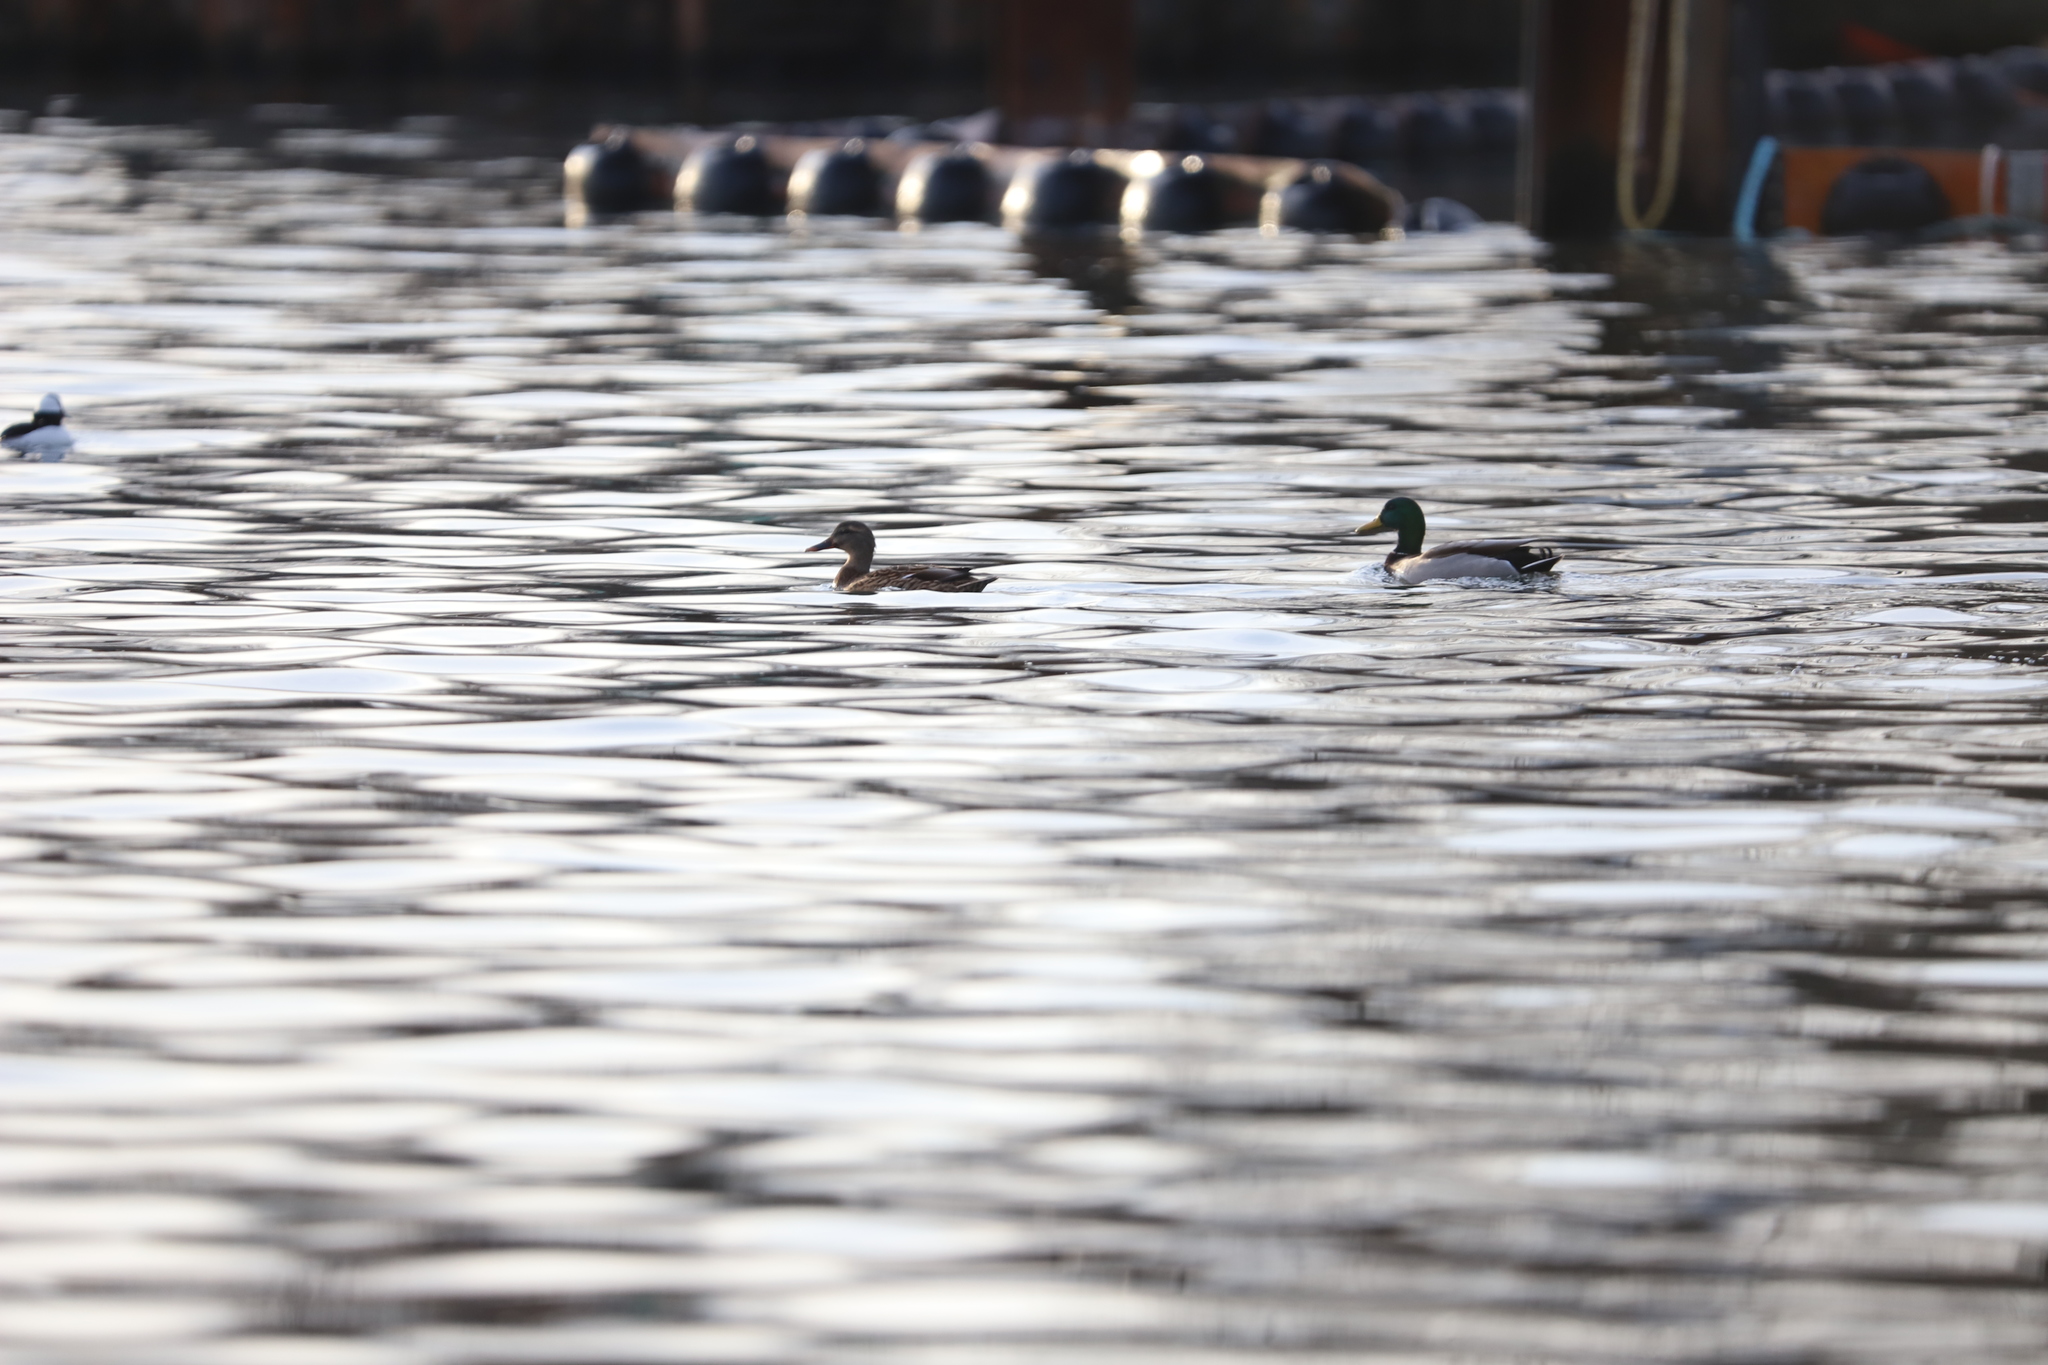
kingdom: Animalia
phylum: Chordata
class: Aves
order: Anseriformes
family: Anatidae
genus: Anas
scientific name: Anas platyrhynchos
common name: Mallard
